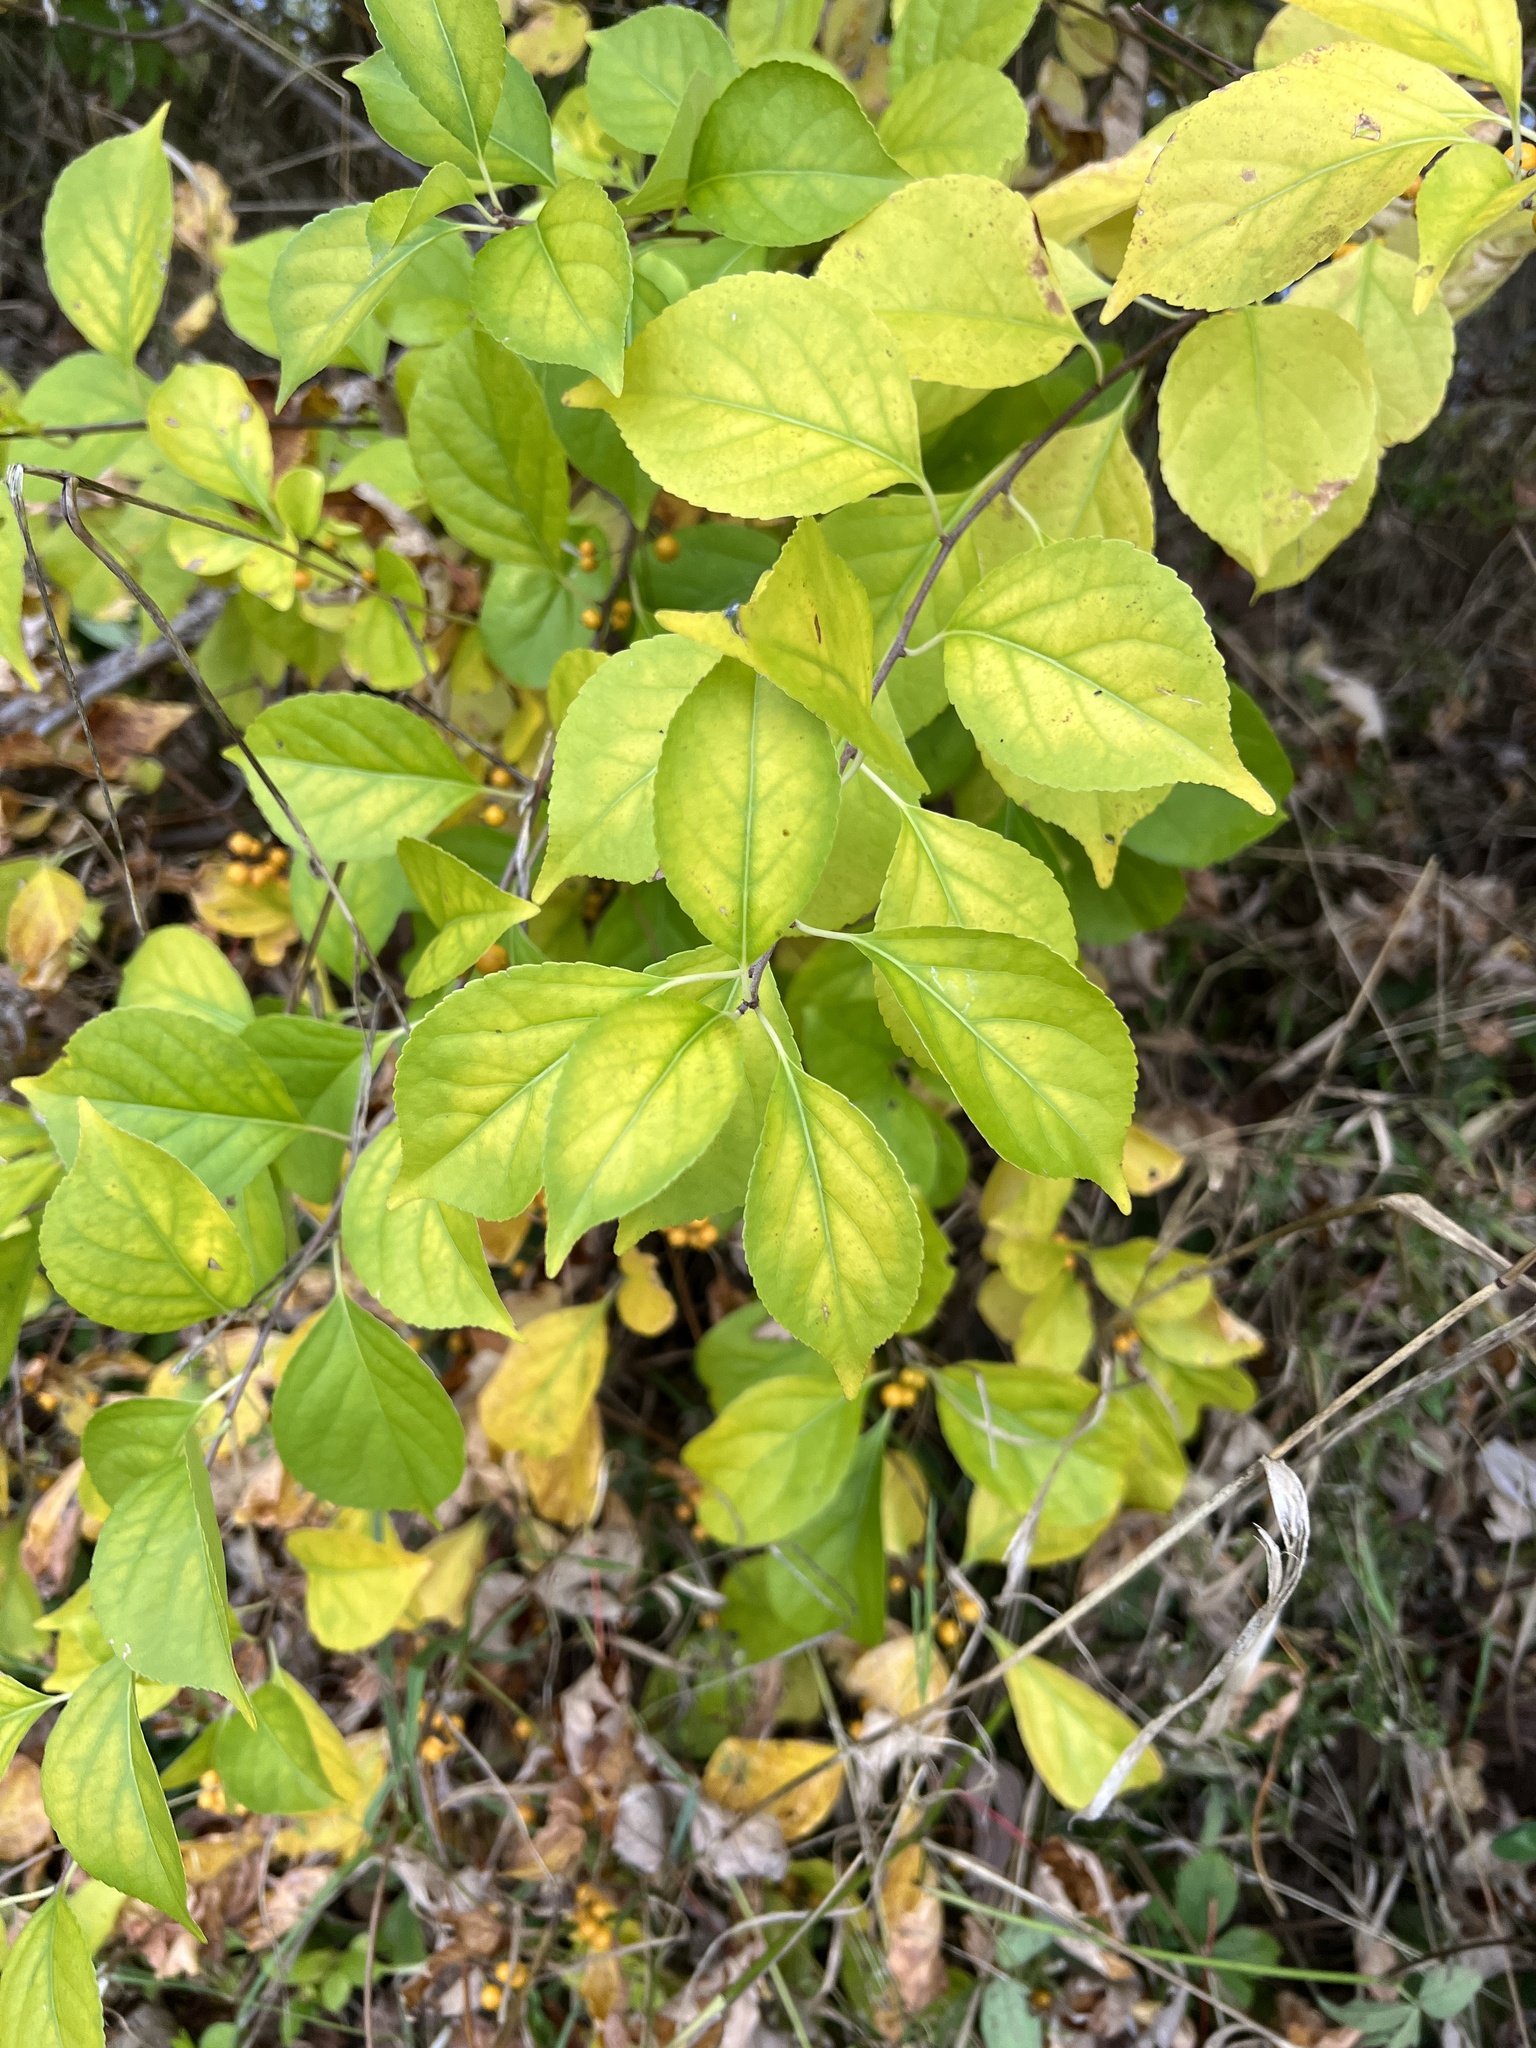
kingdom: Plantae
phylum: Tracheophyta
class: Magnoliopsida
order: Celastrales
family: Celastraceae
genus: Celastrus
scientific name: Celastrus orbiculatus
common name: Oriental bittersweet
